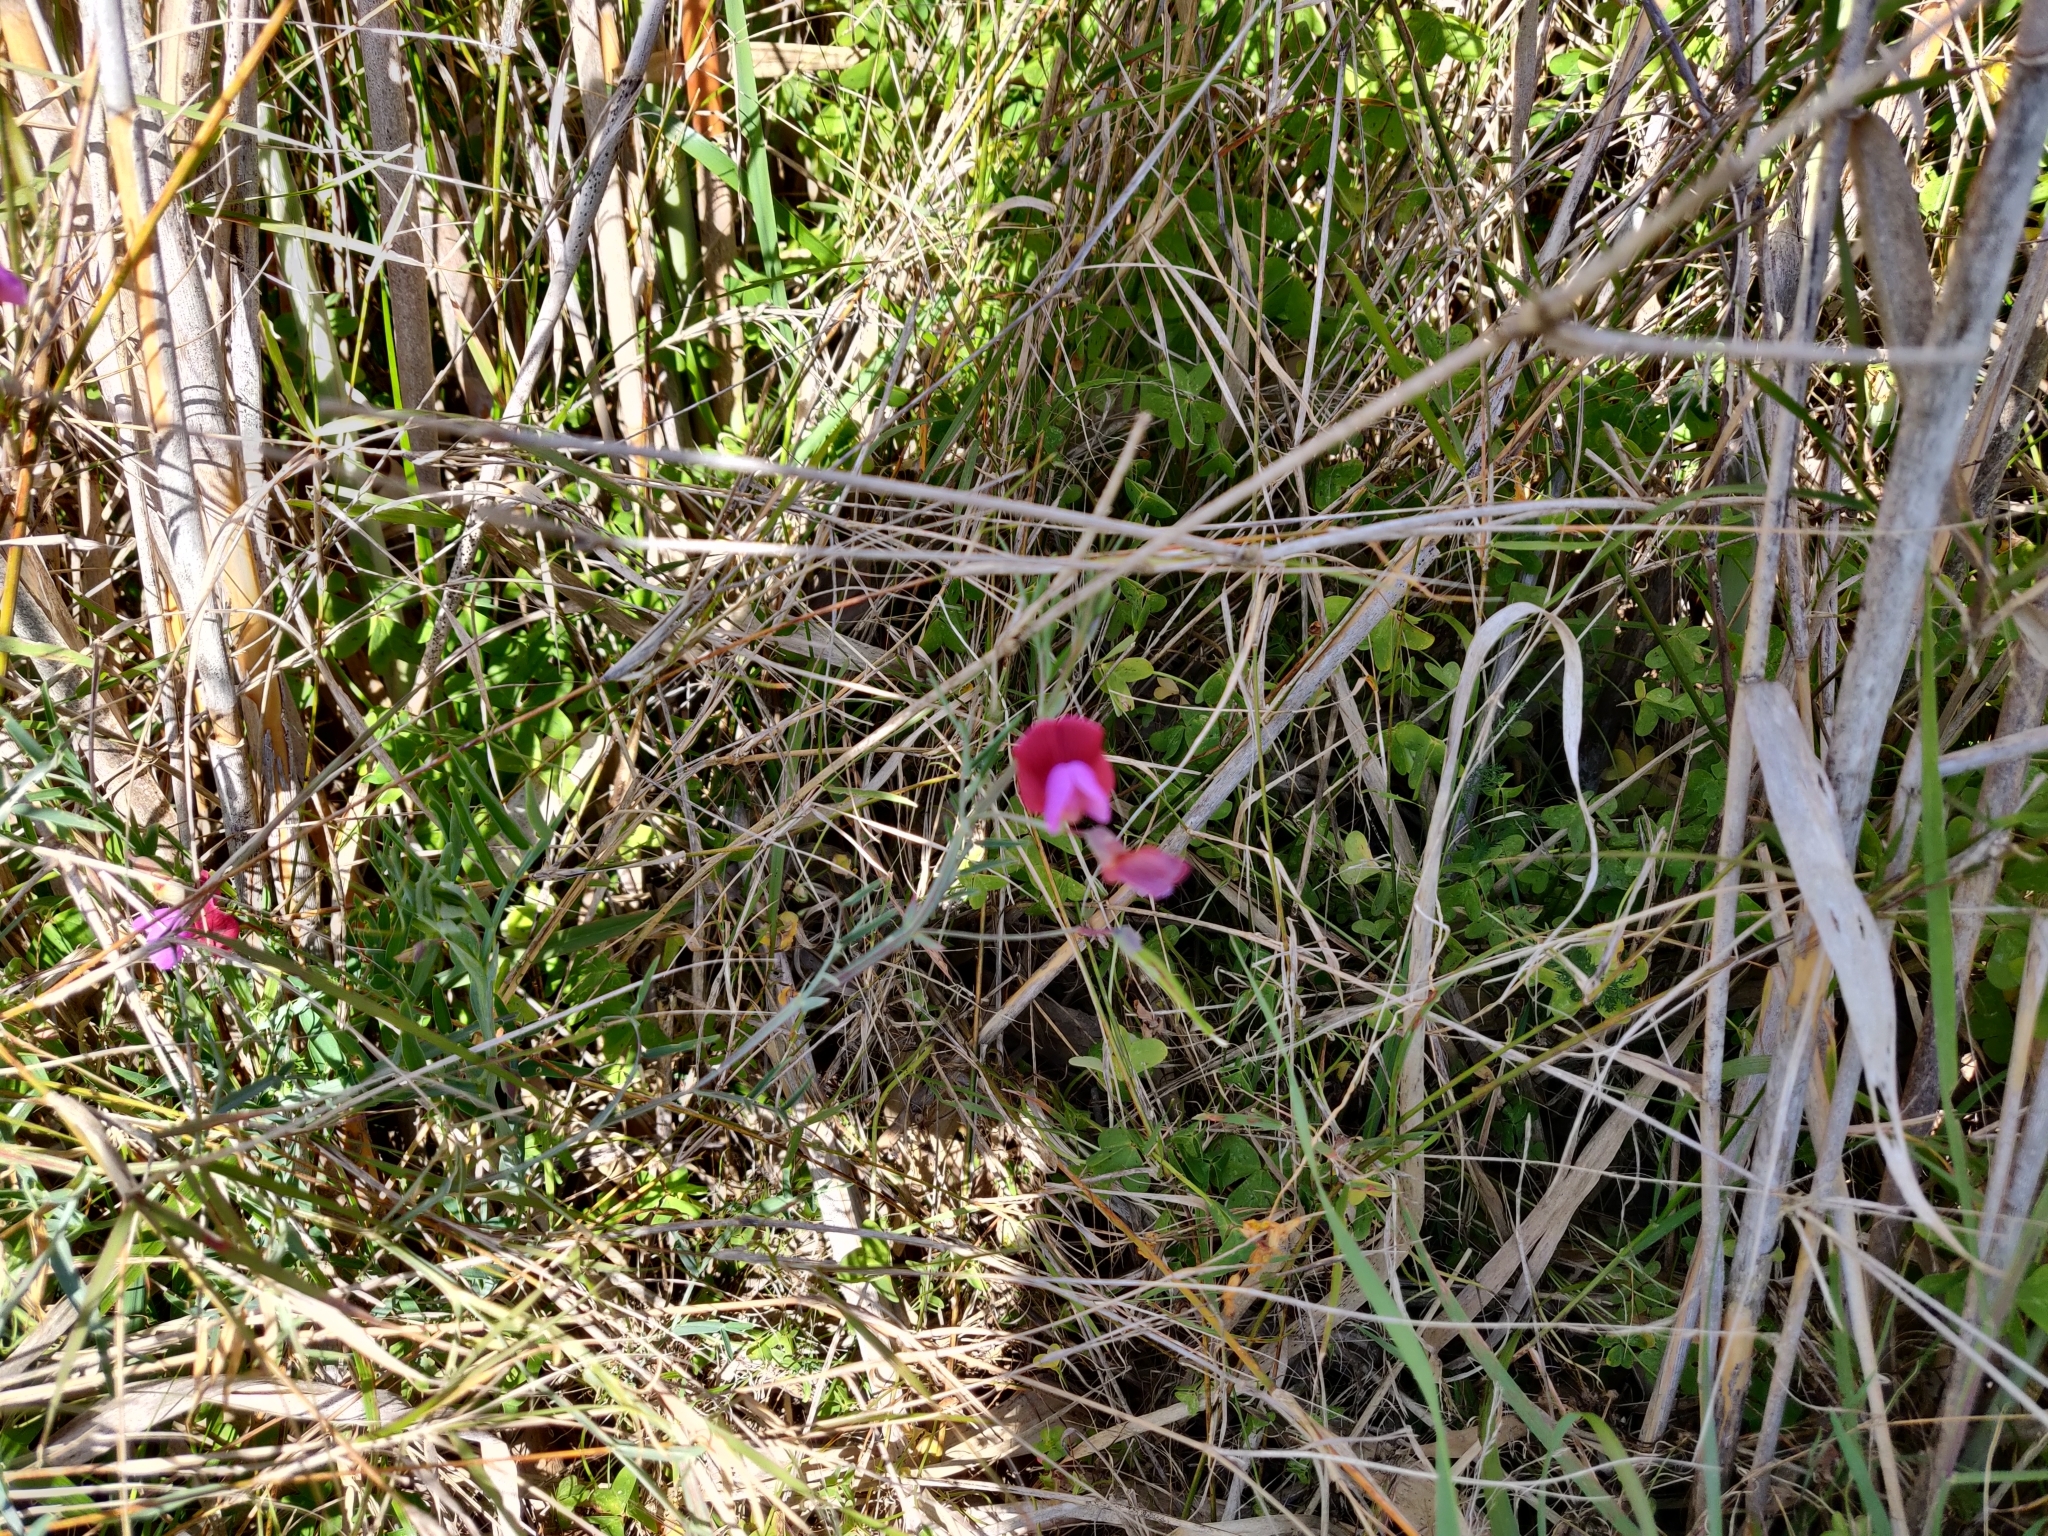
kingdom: Plantae
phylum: Tracheophyta
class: Magnoliopsida
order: Fabales
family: Fabaceae
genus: Lathyrus
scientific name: Lathyrus clymenum
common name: Spanish vetchling
